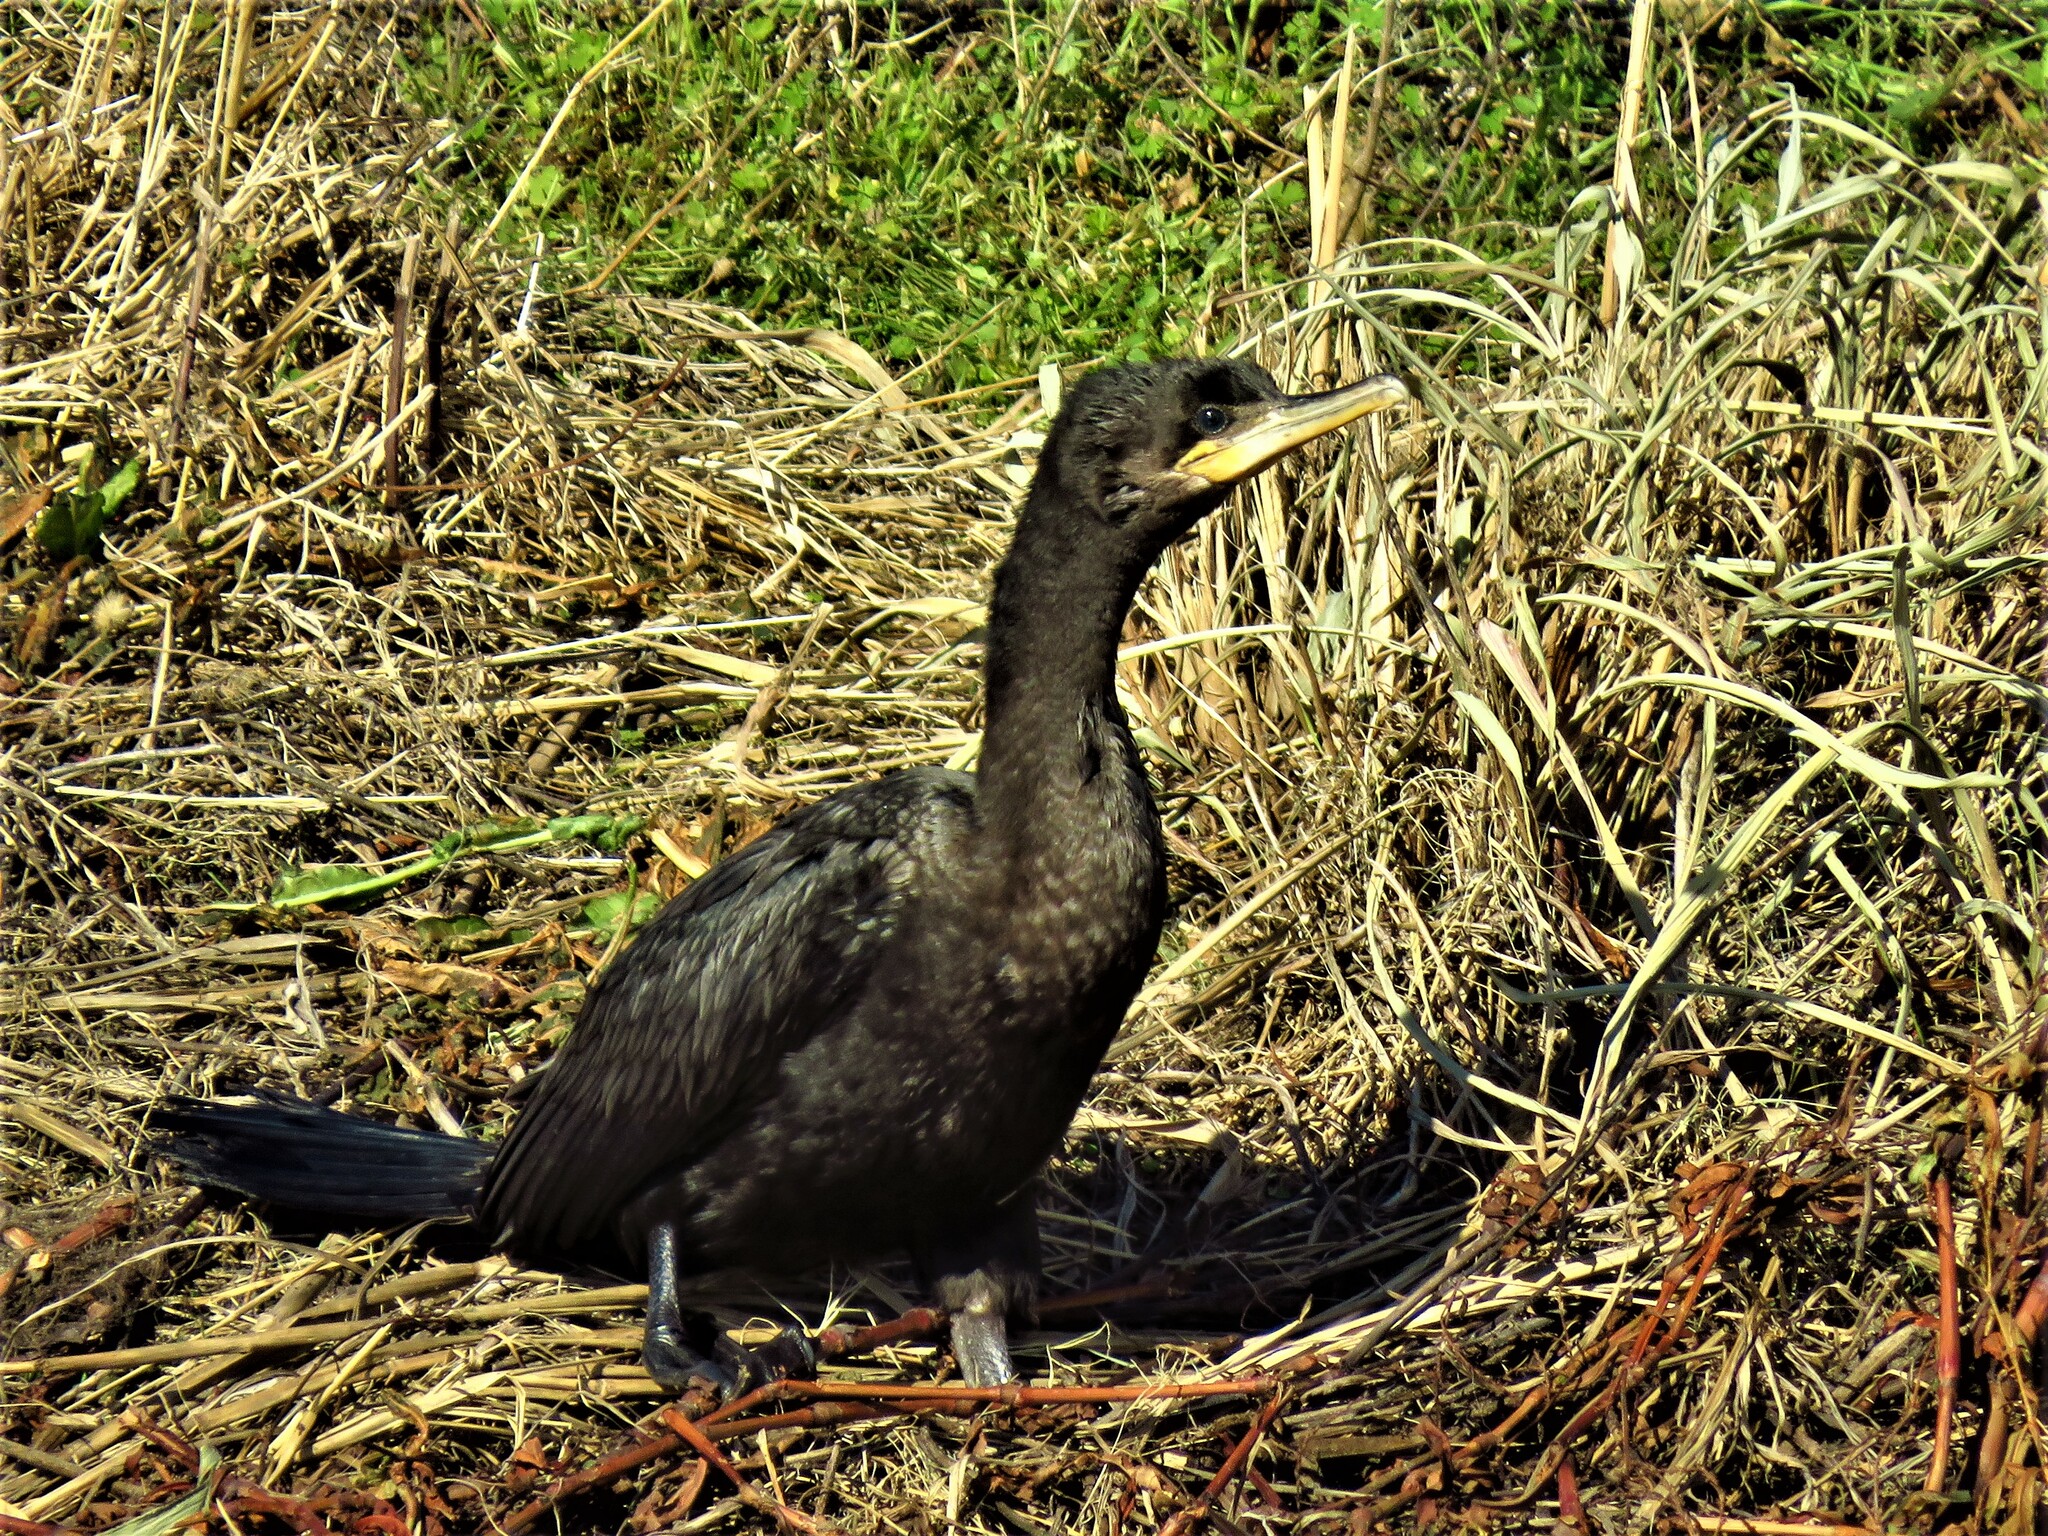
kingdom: Animalia
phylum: Chordata
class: Aves
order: Suliformes
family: Phalacrocoracidae
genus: Phalacrocorax
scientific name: Phalacrocorax brasilianus
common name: Neotropic cormorant
